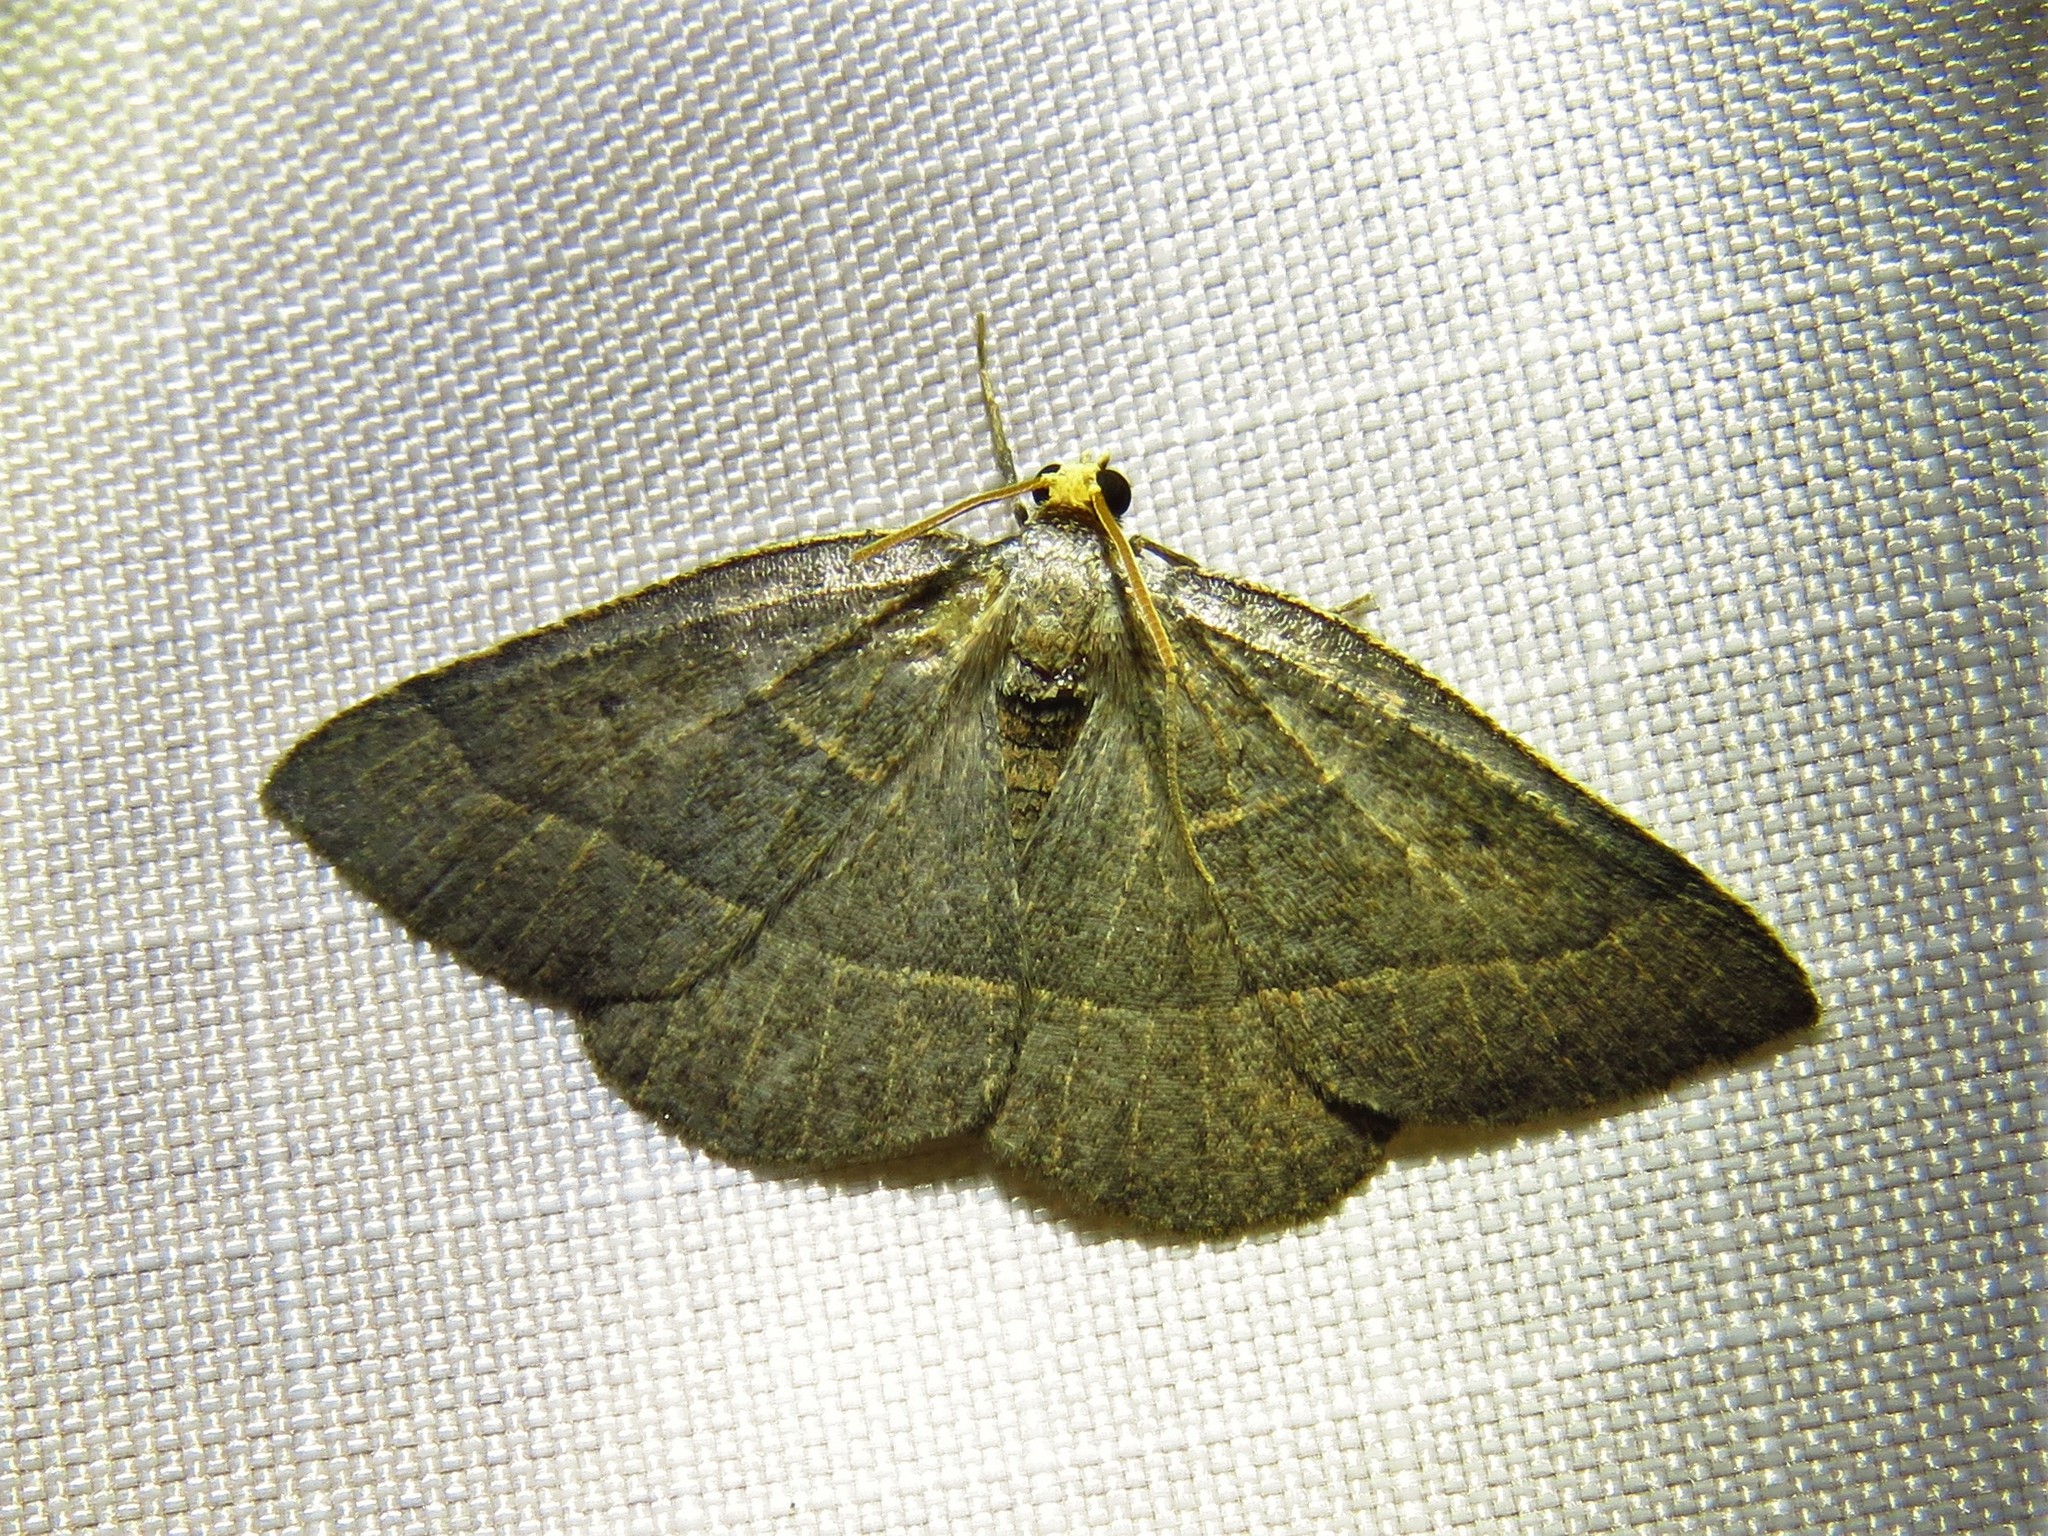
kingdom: Animalia
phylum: Arthropoda
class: Insecta
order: Lepidoptera
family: Geometridae
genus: Episemasia
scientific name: Episemasia cervinaria
